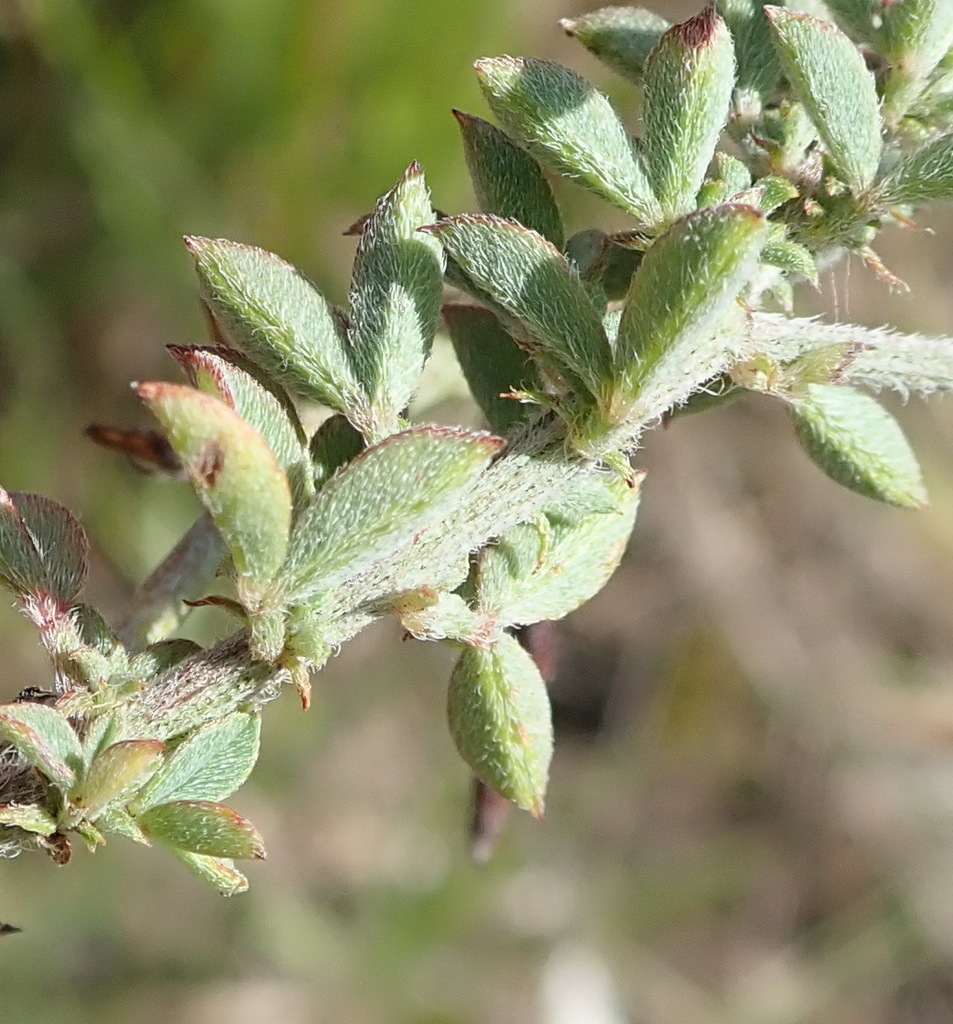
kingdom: Plantae
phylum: Tracheophyta
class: Magnoliopsida
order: Fabales
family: Fabaceae
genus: Indigofera
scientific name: Indigofera porrecta
